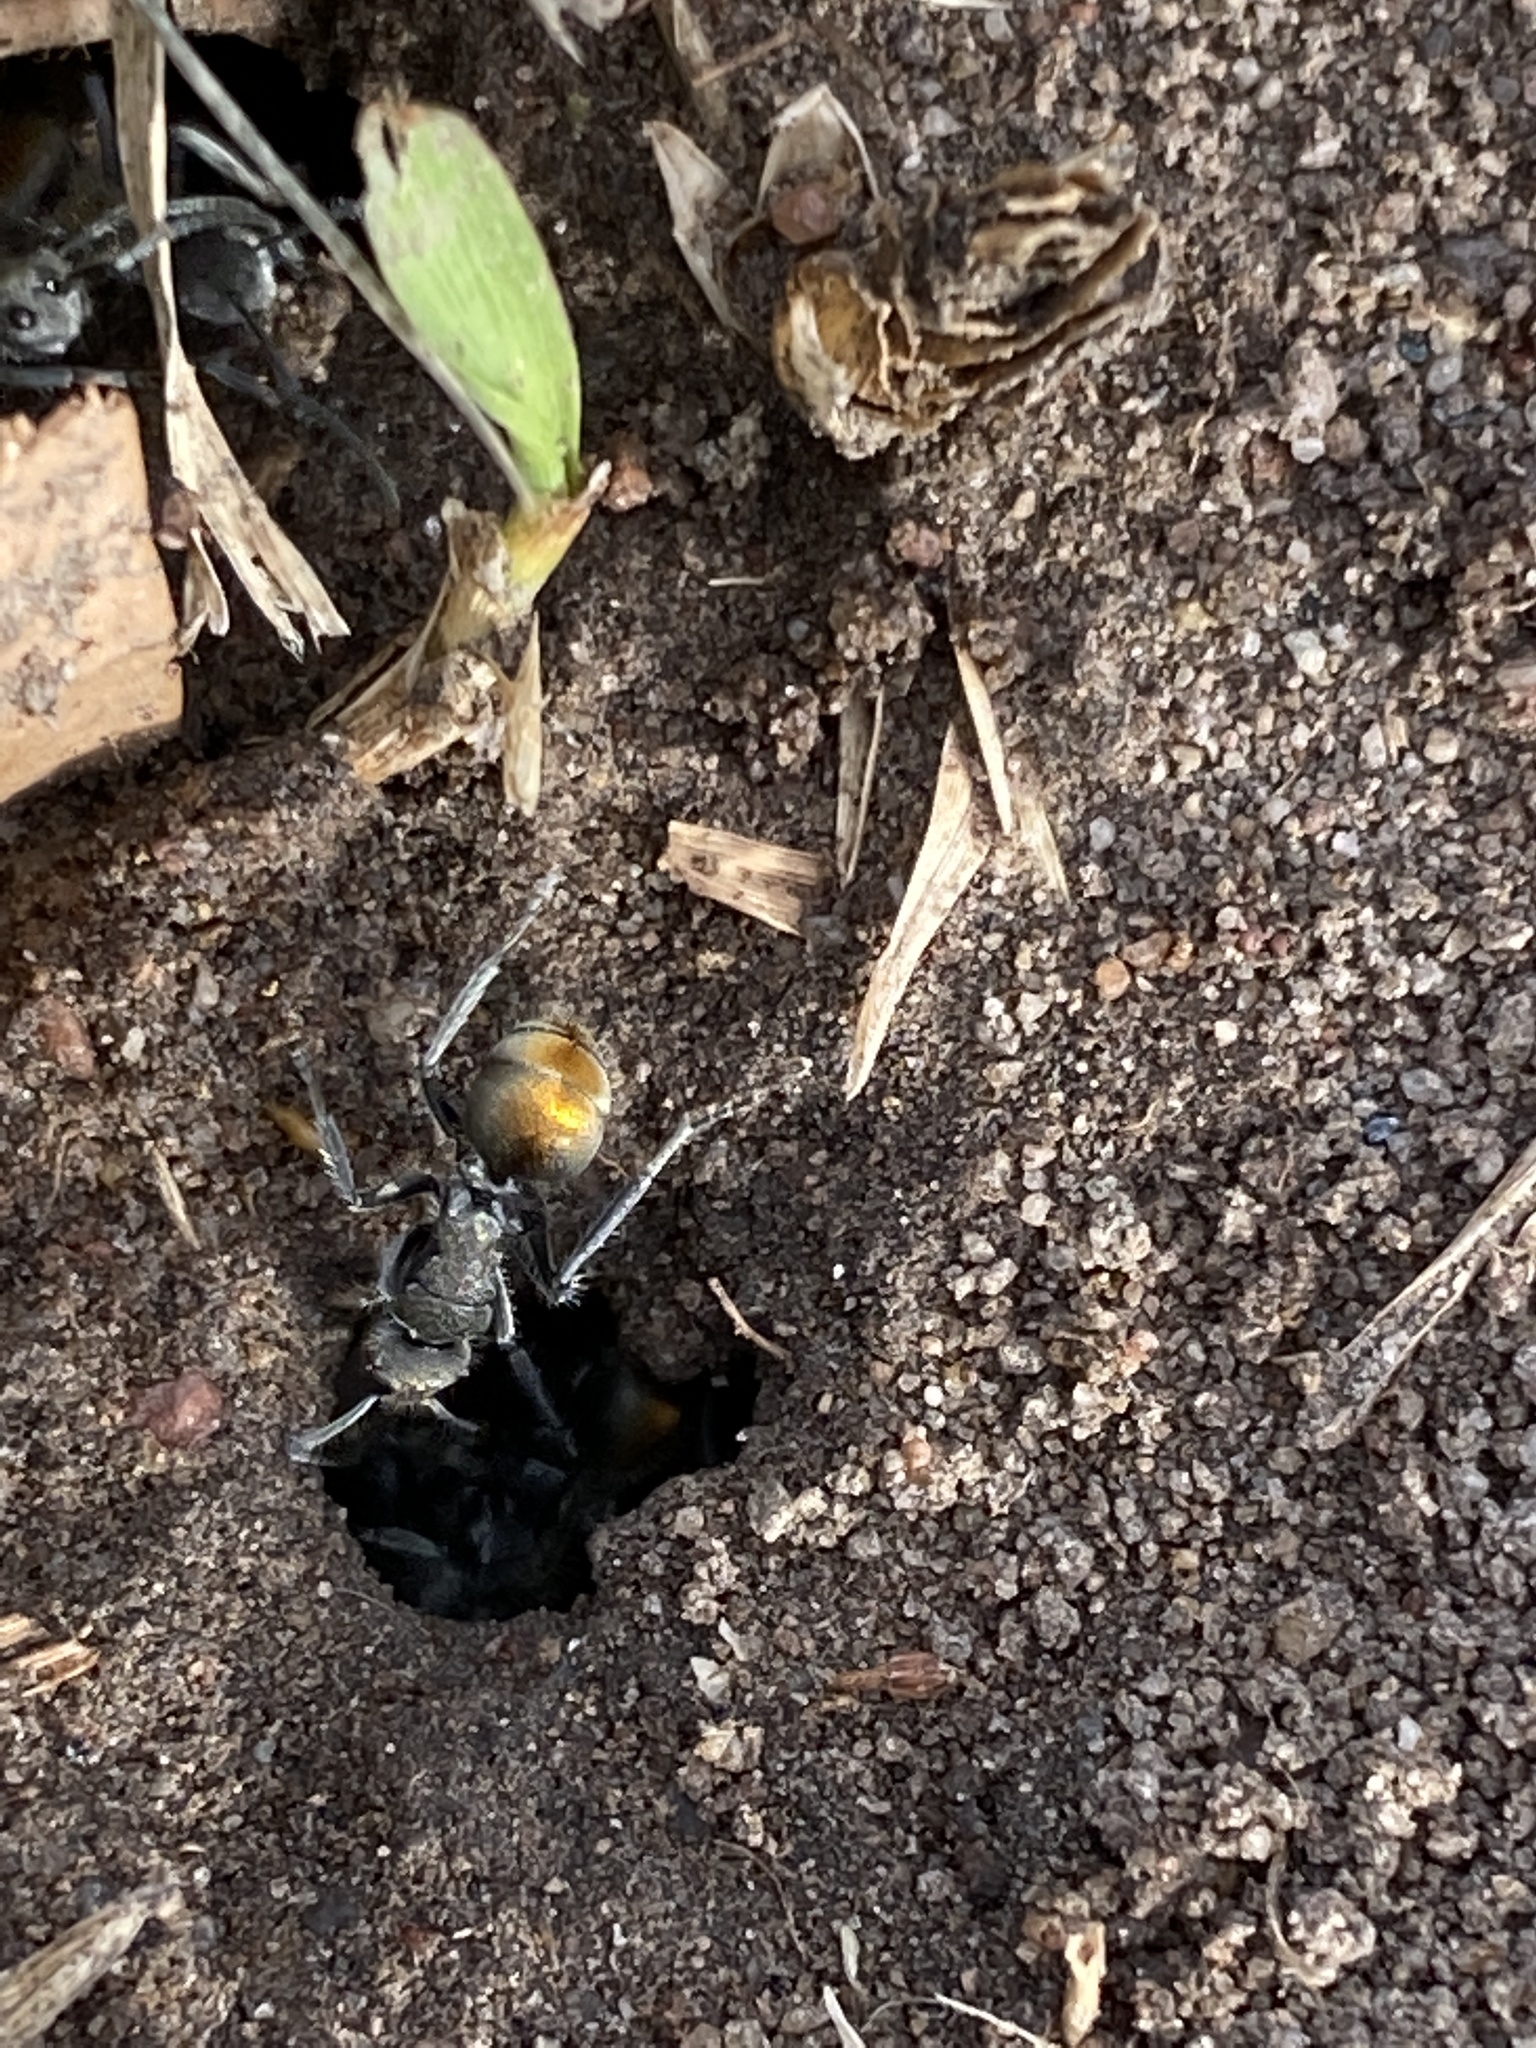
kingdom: Animalia
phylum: Arthropoda
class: Insecta
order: Hymenoptera
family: Formicidae
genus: Polyrhachis
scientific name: Polyrhachis vermiculosa
